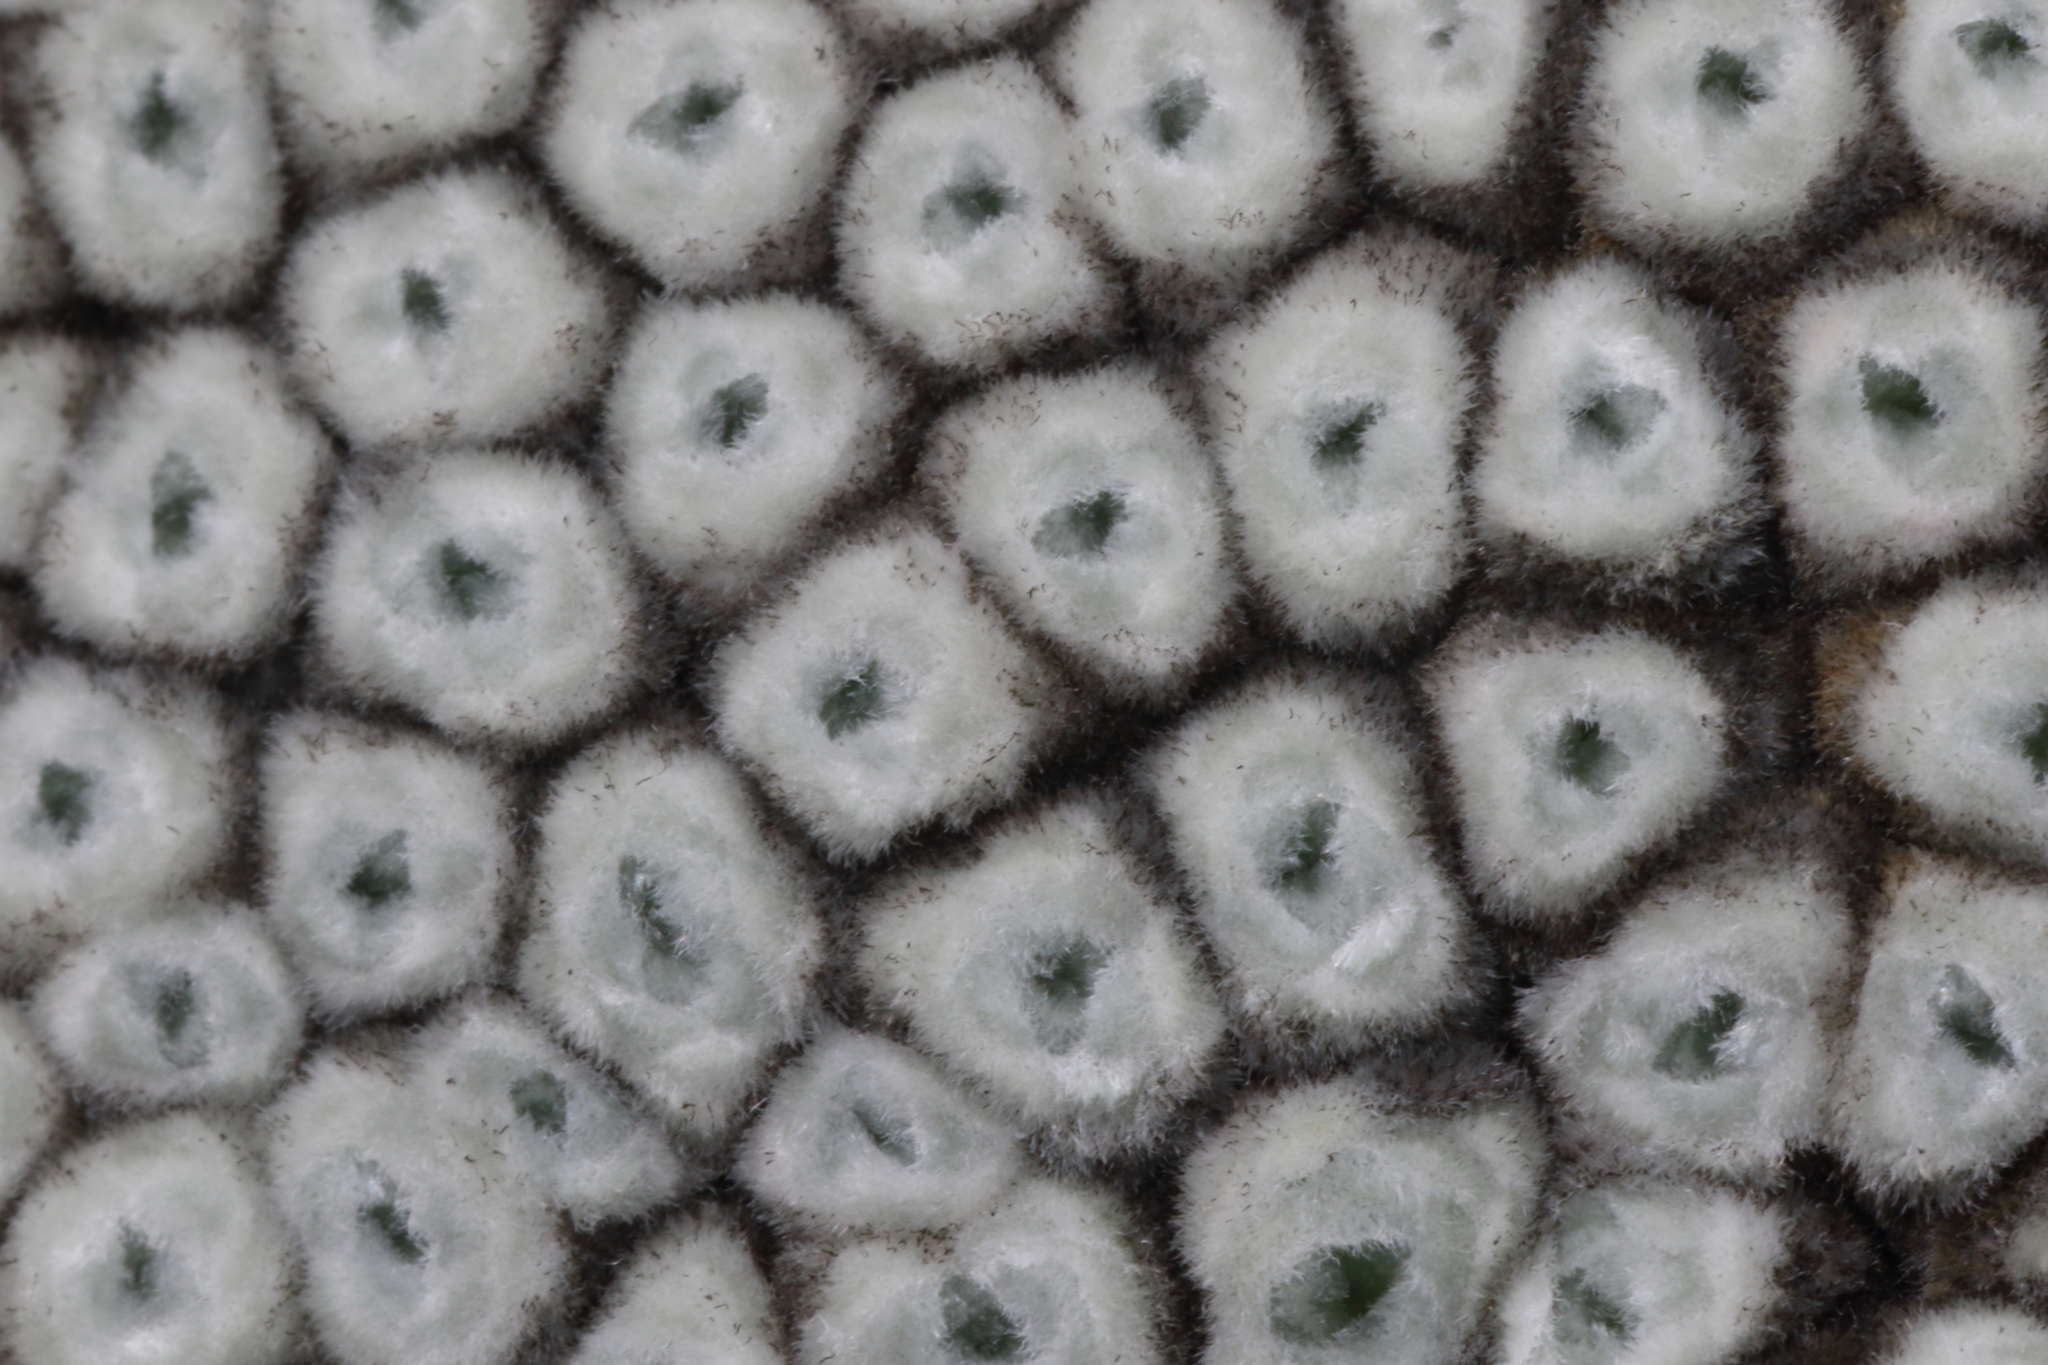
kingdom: Plantae
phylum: Tracheophyta
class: Magnoliopsida
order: Asterales
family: Asteraceae
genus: Raoulia
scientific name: Raoulia eximia
